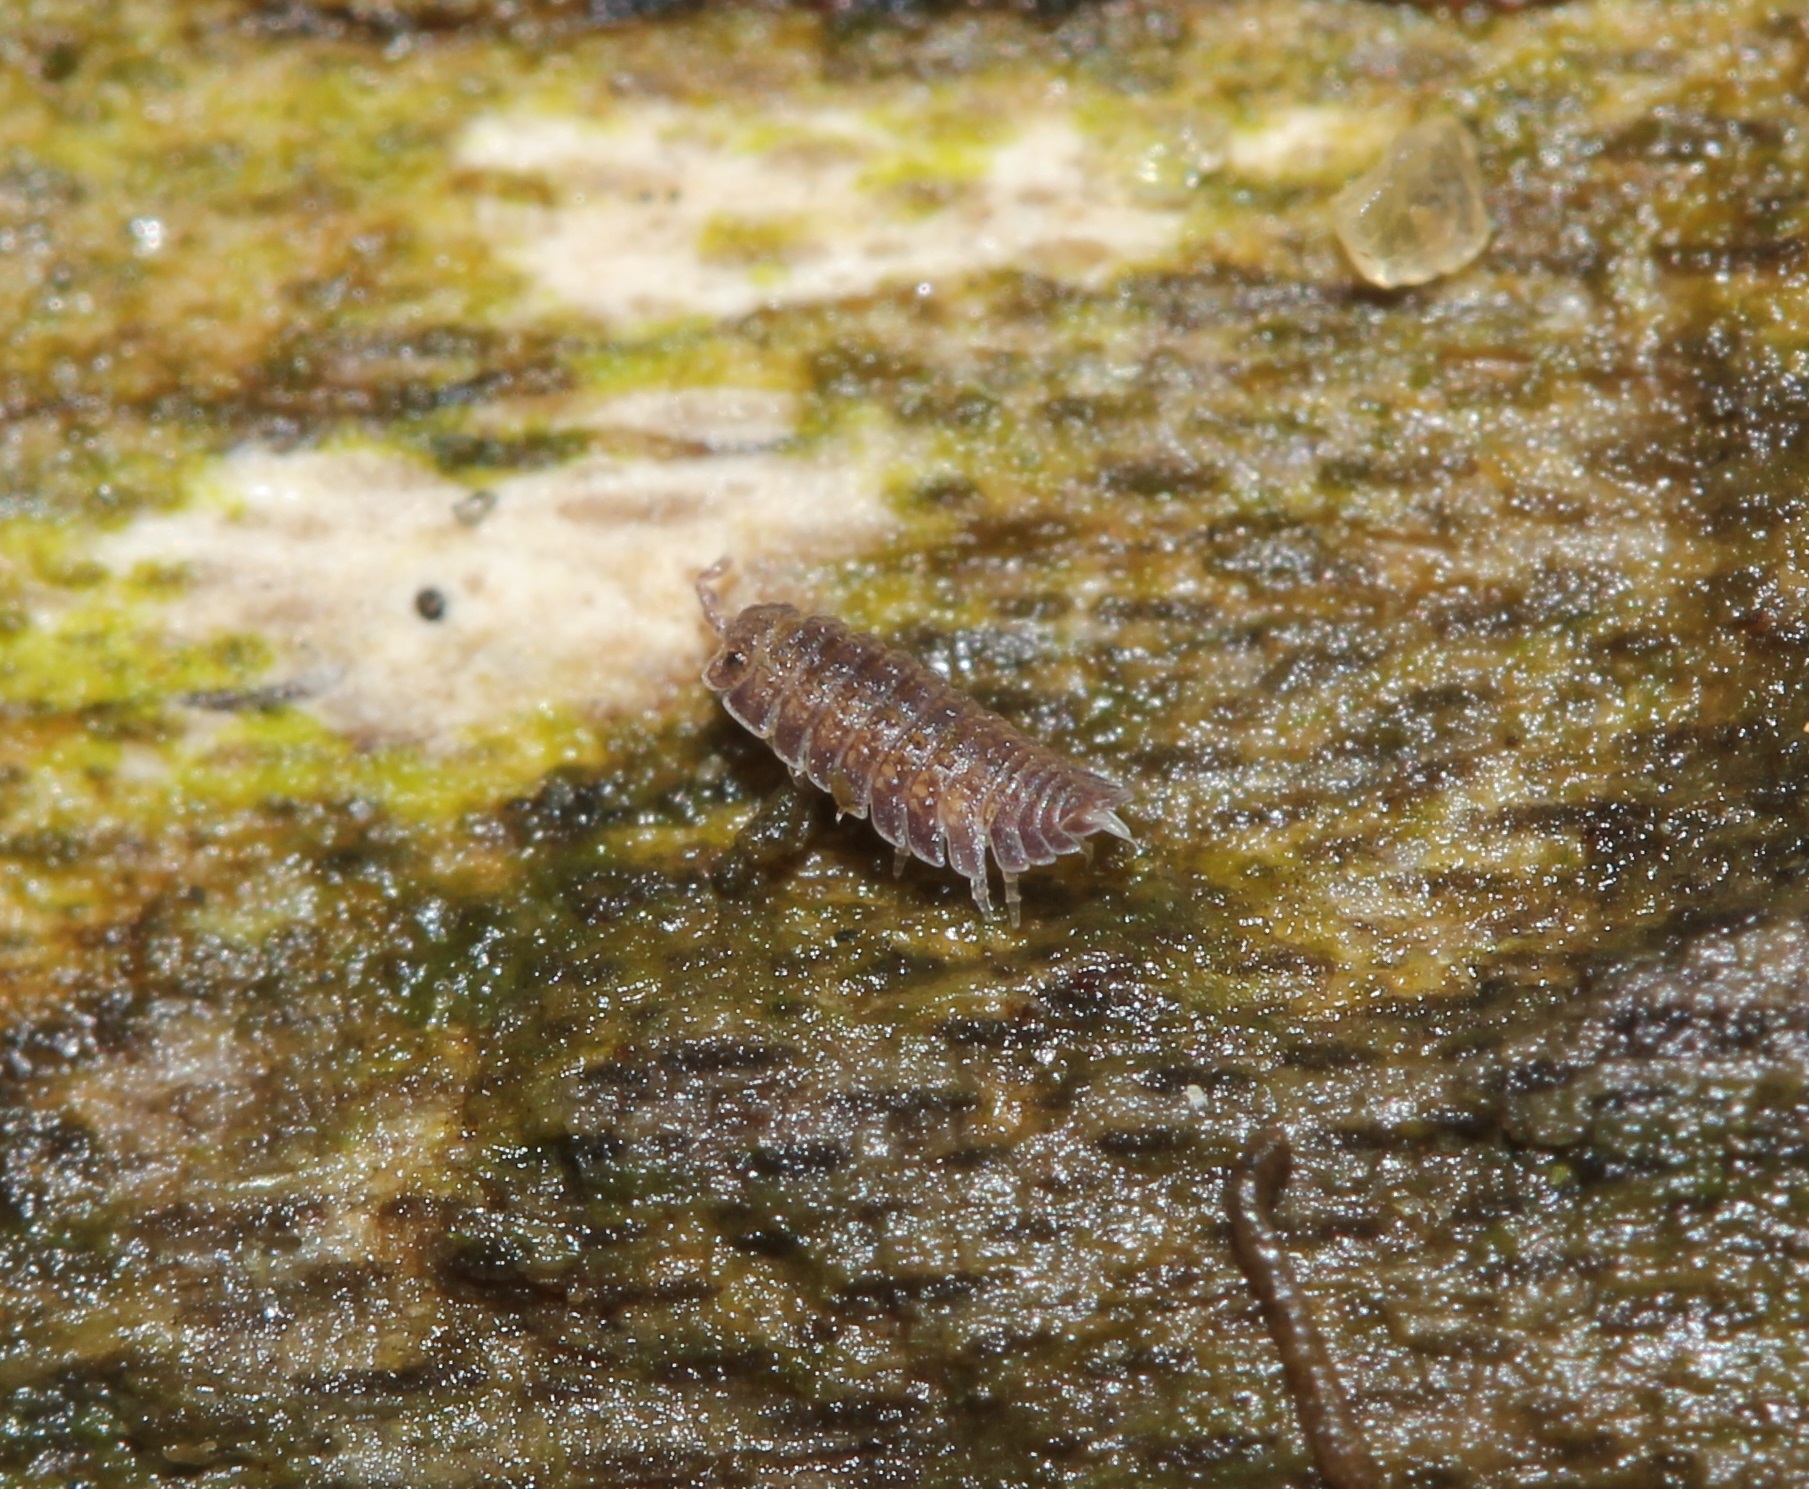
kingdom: Animalia
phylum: Arthropoda
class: Malacostraca
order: Isopoda
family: Detonidae
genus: Armadilloniscus
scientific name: Armadilloniscus ellipticus
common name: Pillbug
